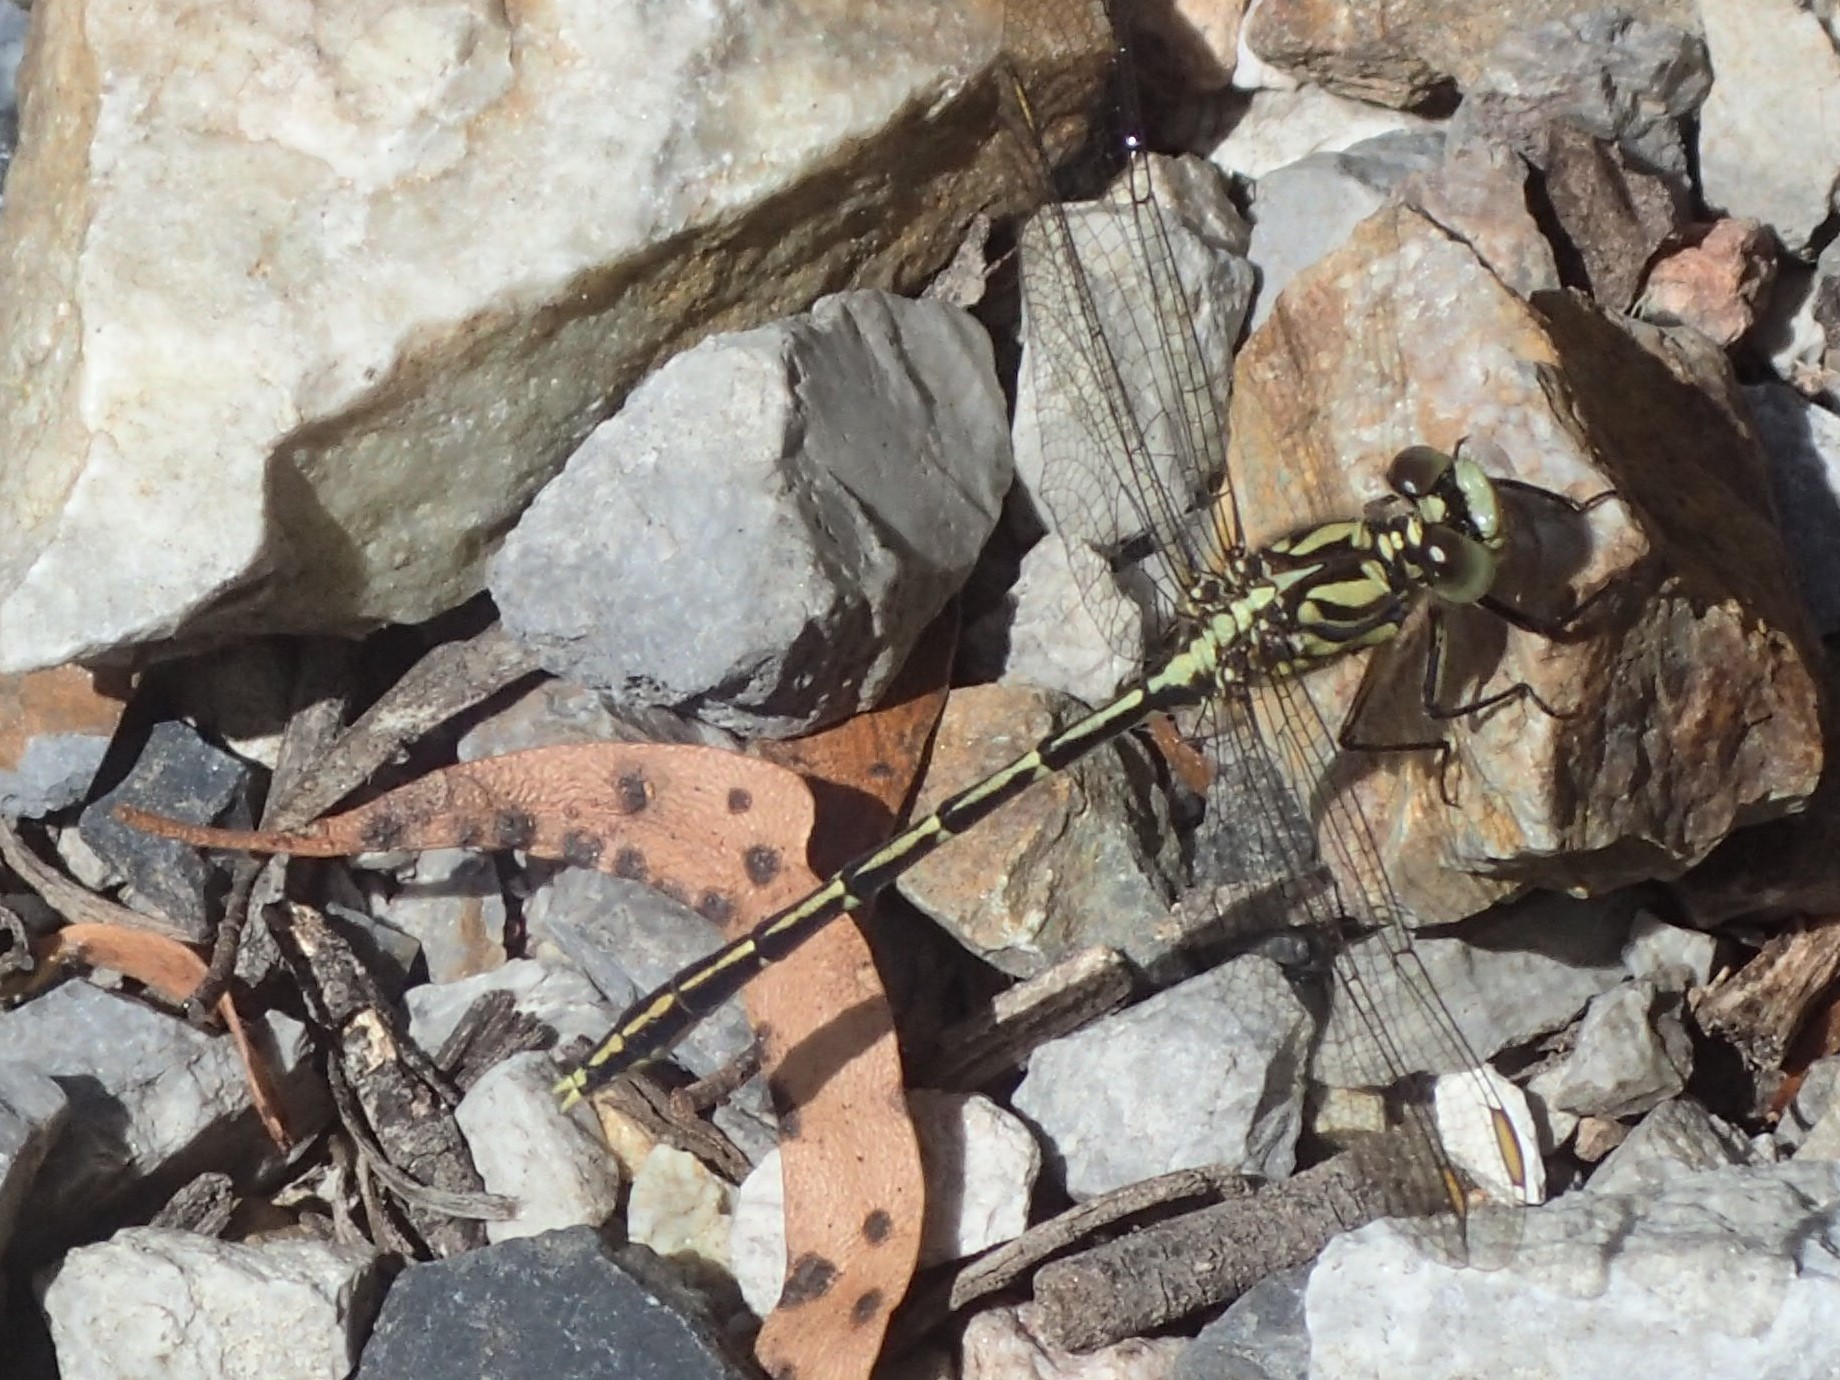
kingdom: Animalia
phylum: Arthropoda
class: Insecta
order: Odonata
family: Gomphidae
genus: Austrogomphus
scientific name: Austrogomphus guerini
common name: Yellow-striped hunter
